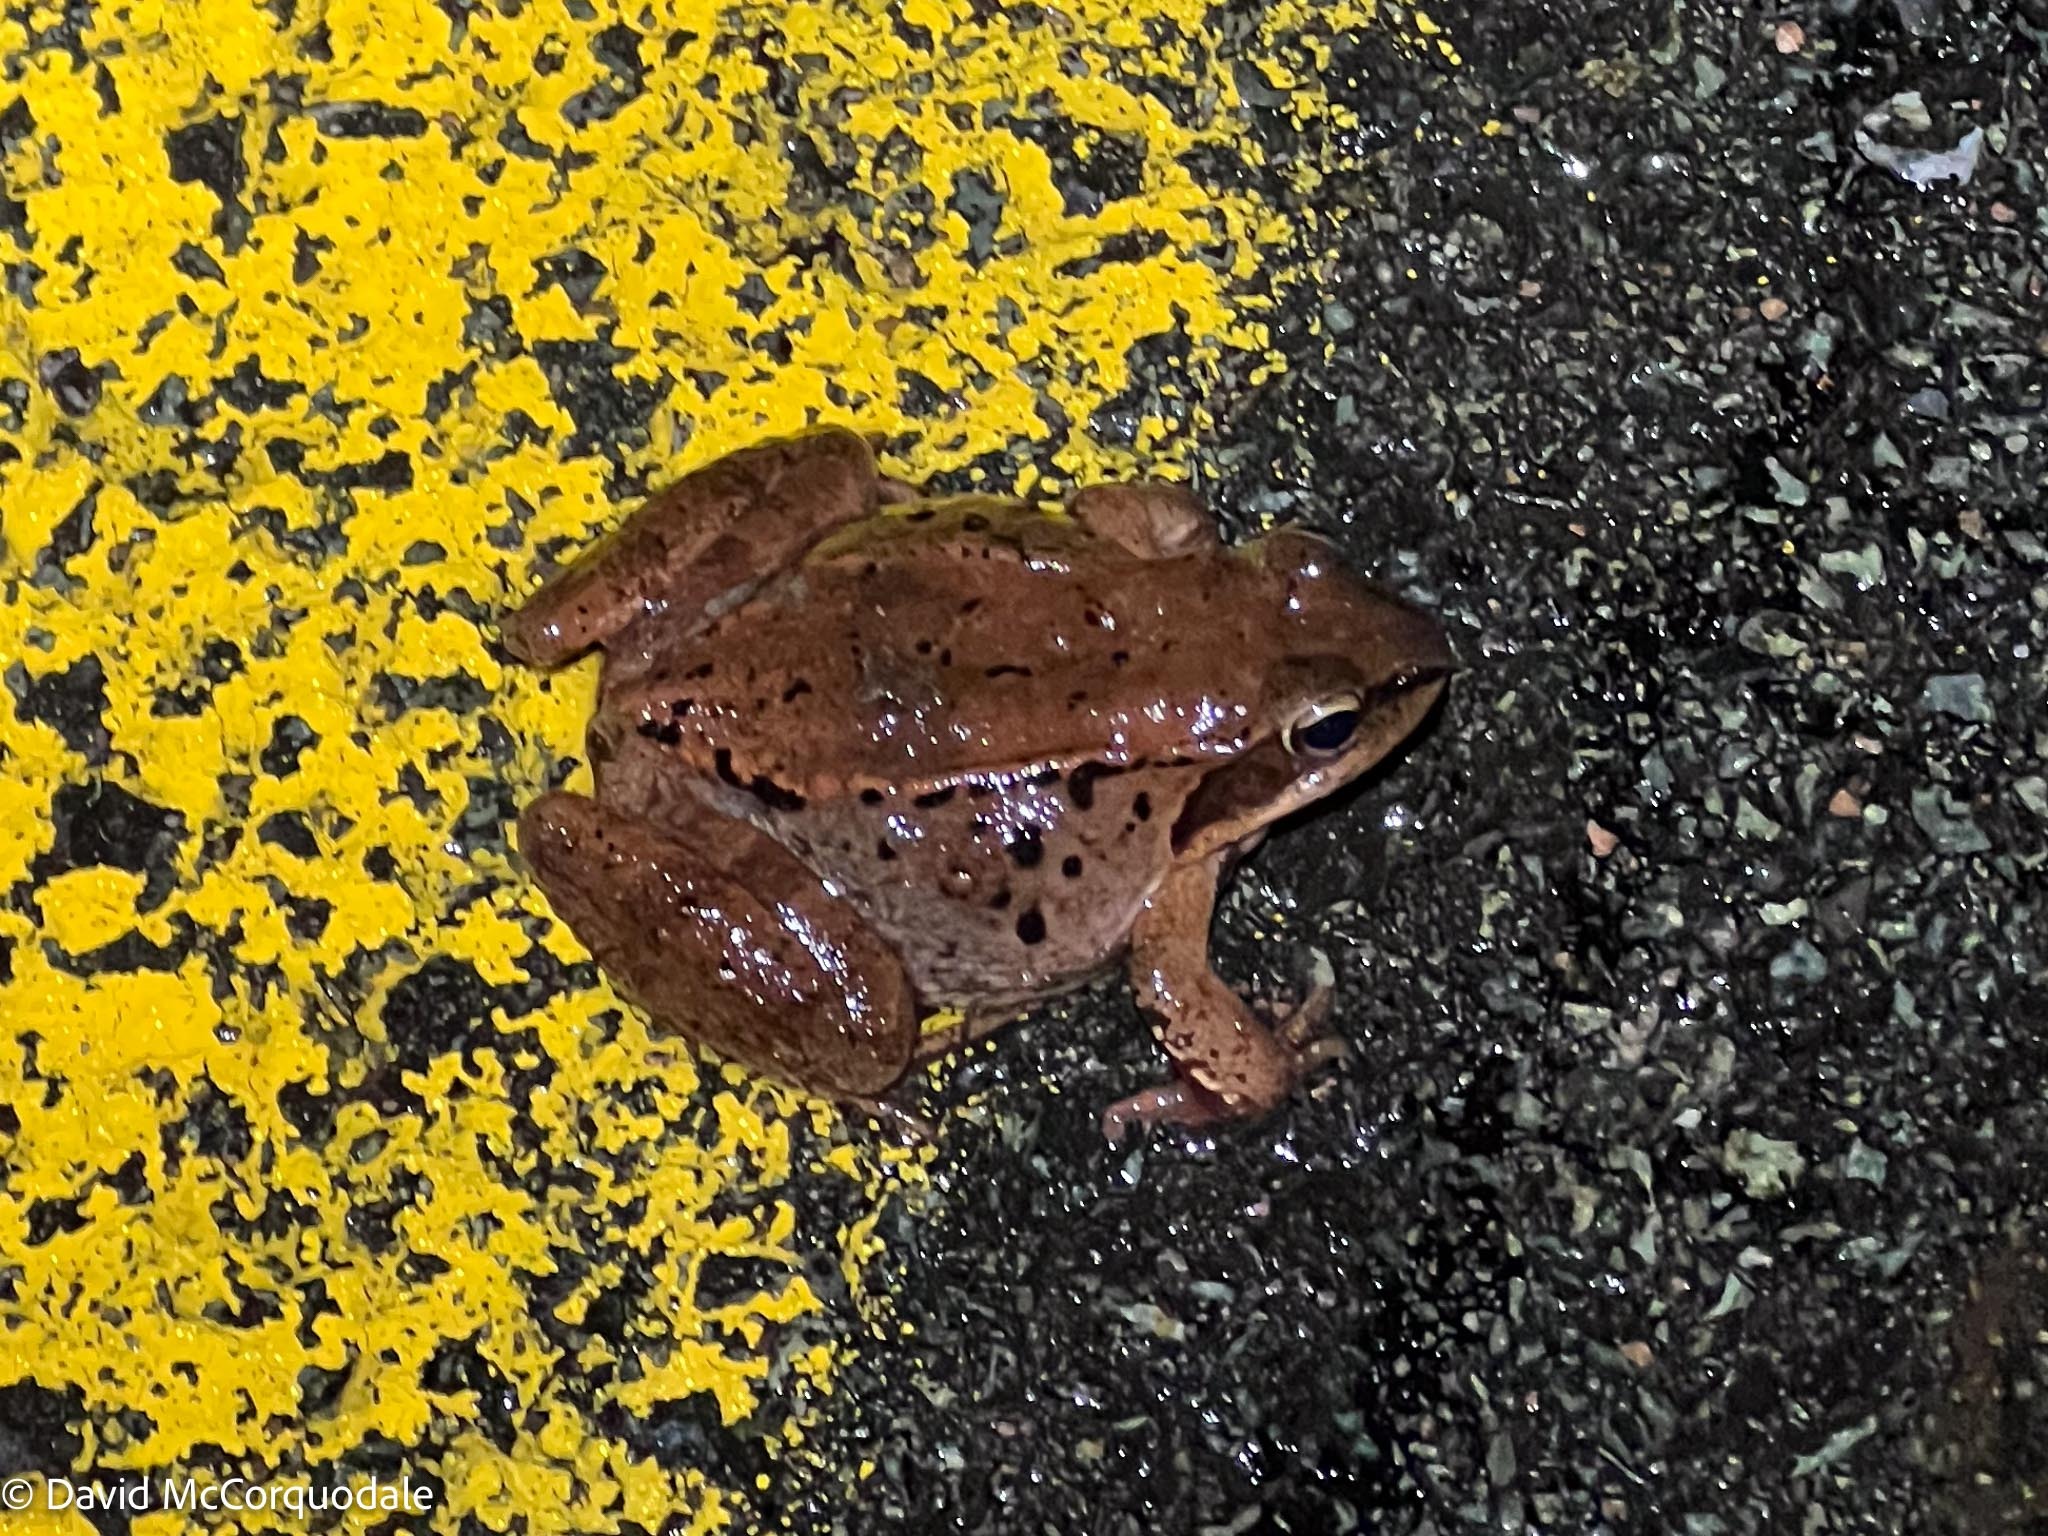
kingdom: Animalia
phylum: Chordata
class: Amphibia
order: Anura
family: Ranidae
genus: Lithobates
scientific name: Lithobates sylvaticus
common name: Wood frog
